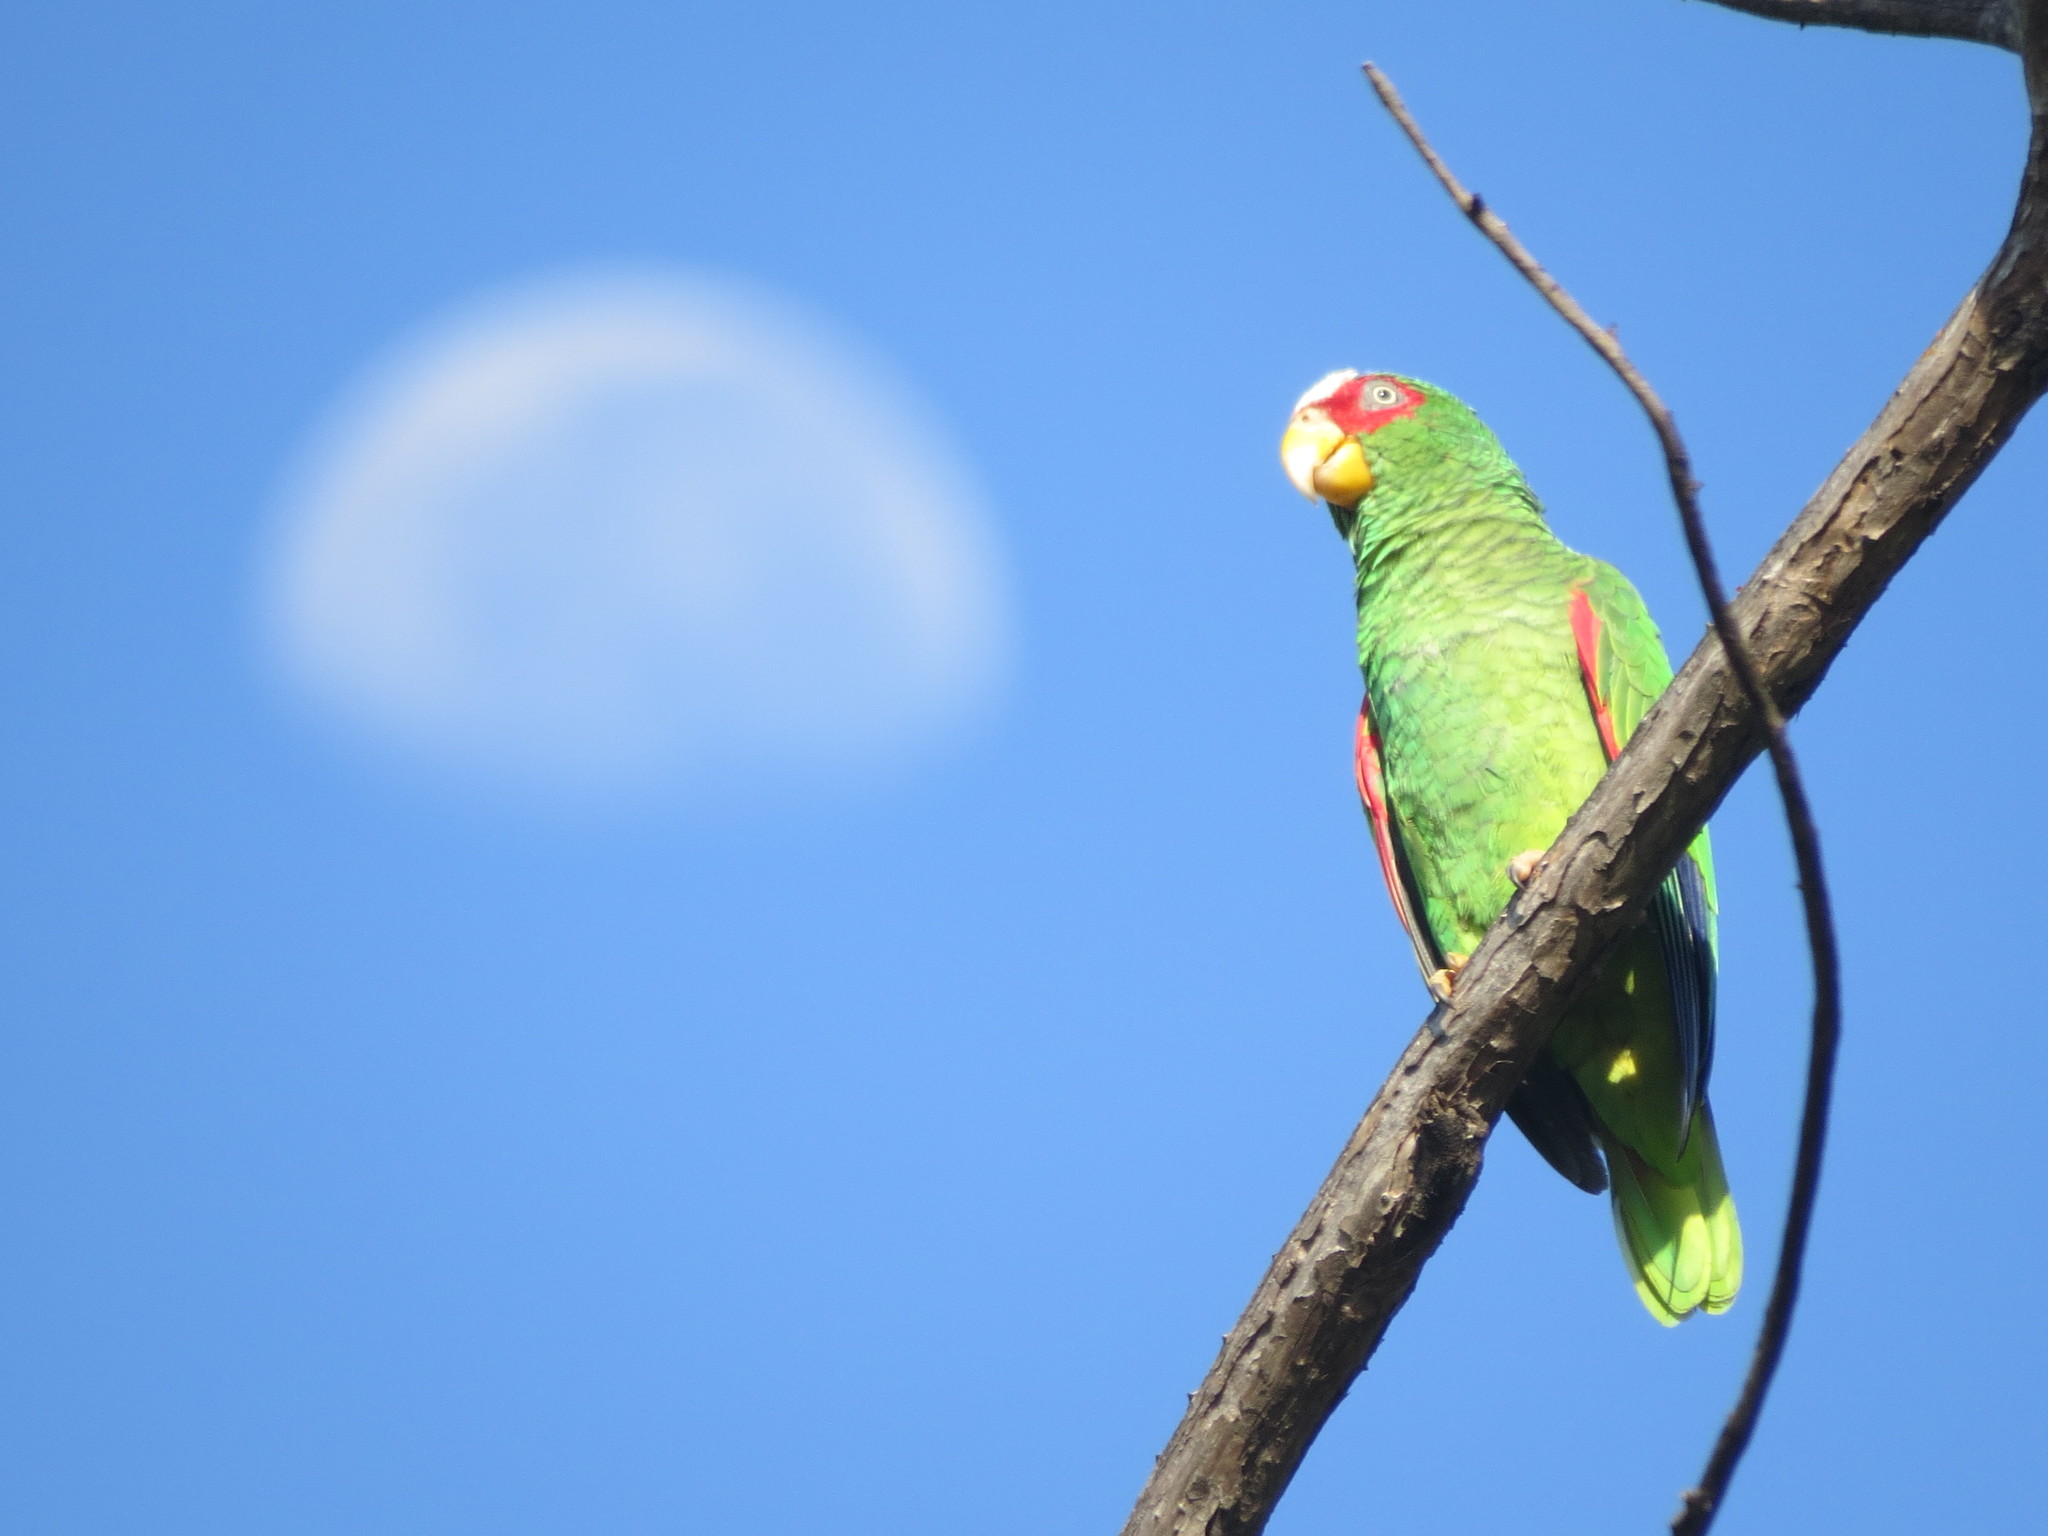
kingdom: Animalia
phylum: Chordata
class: Aves
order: Psittaciformes
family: Psittacidae
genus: Amazona
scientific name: Amazona albifrons
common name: White-fronted amazon
